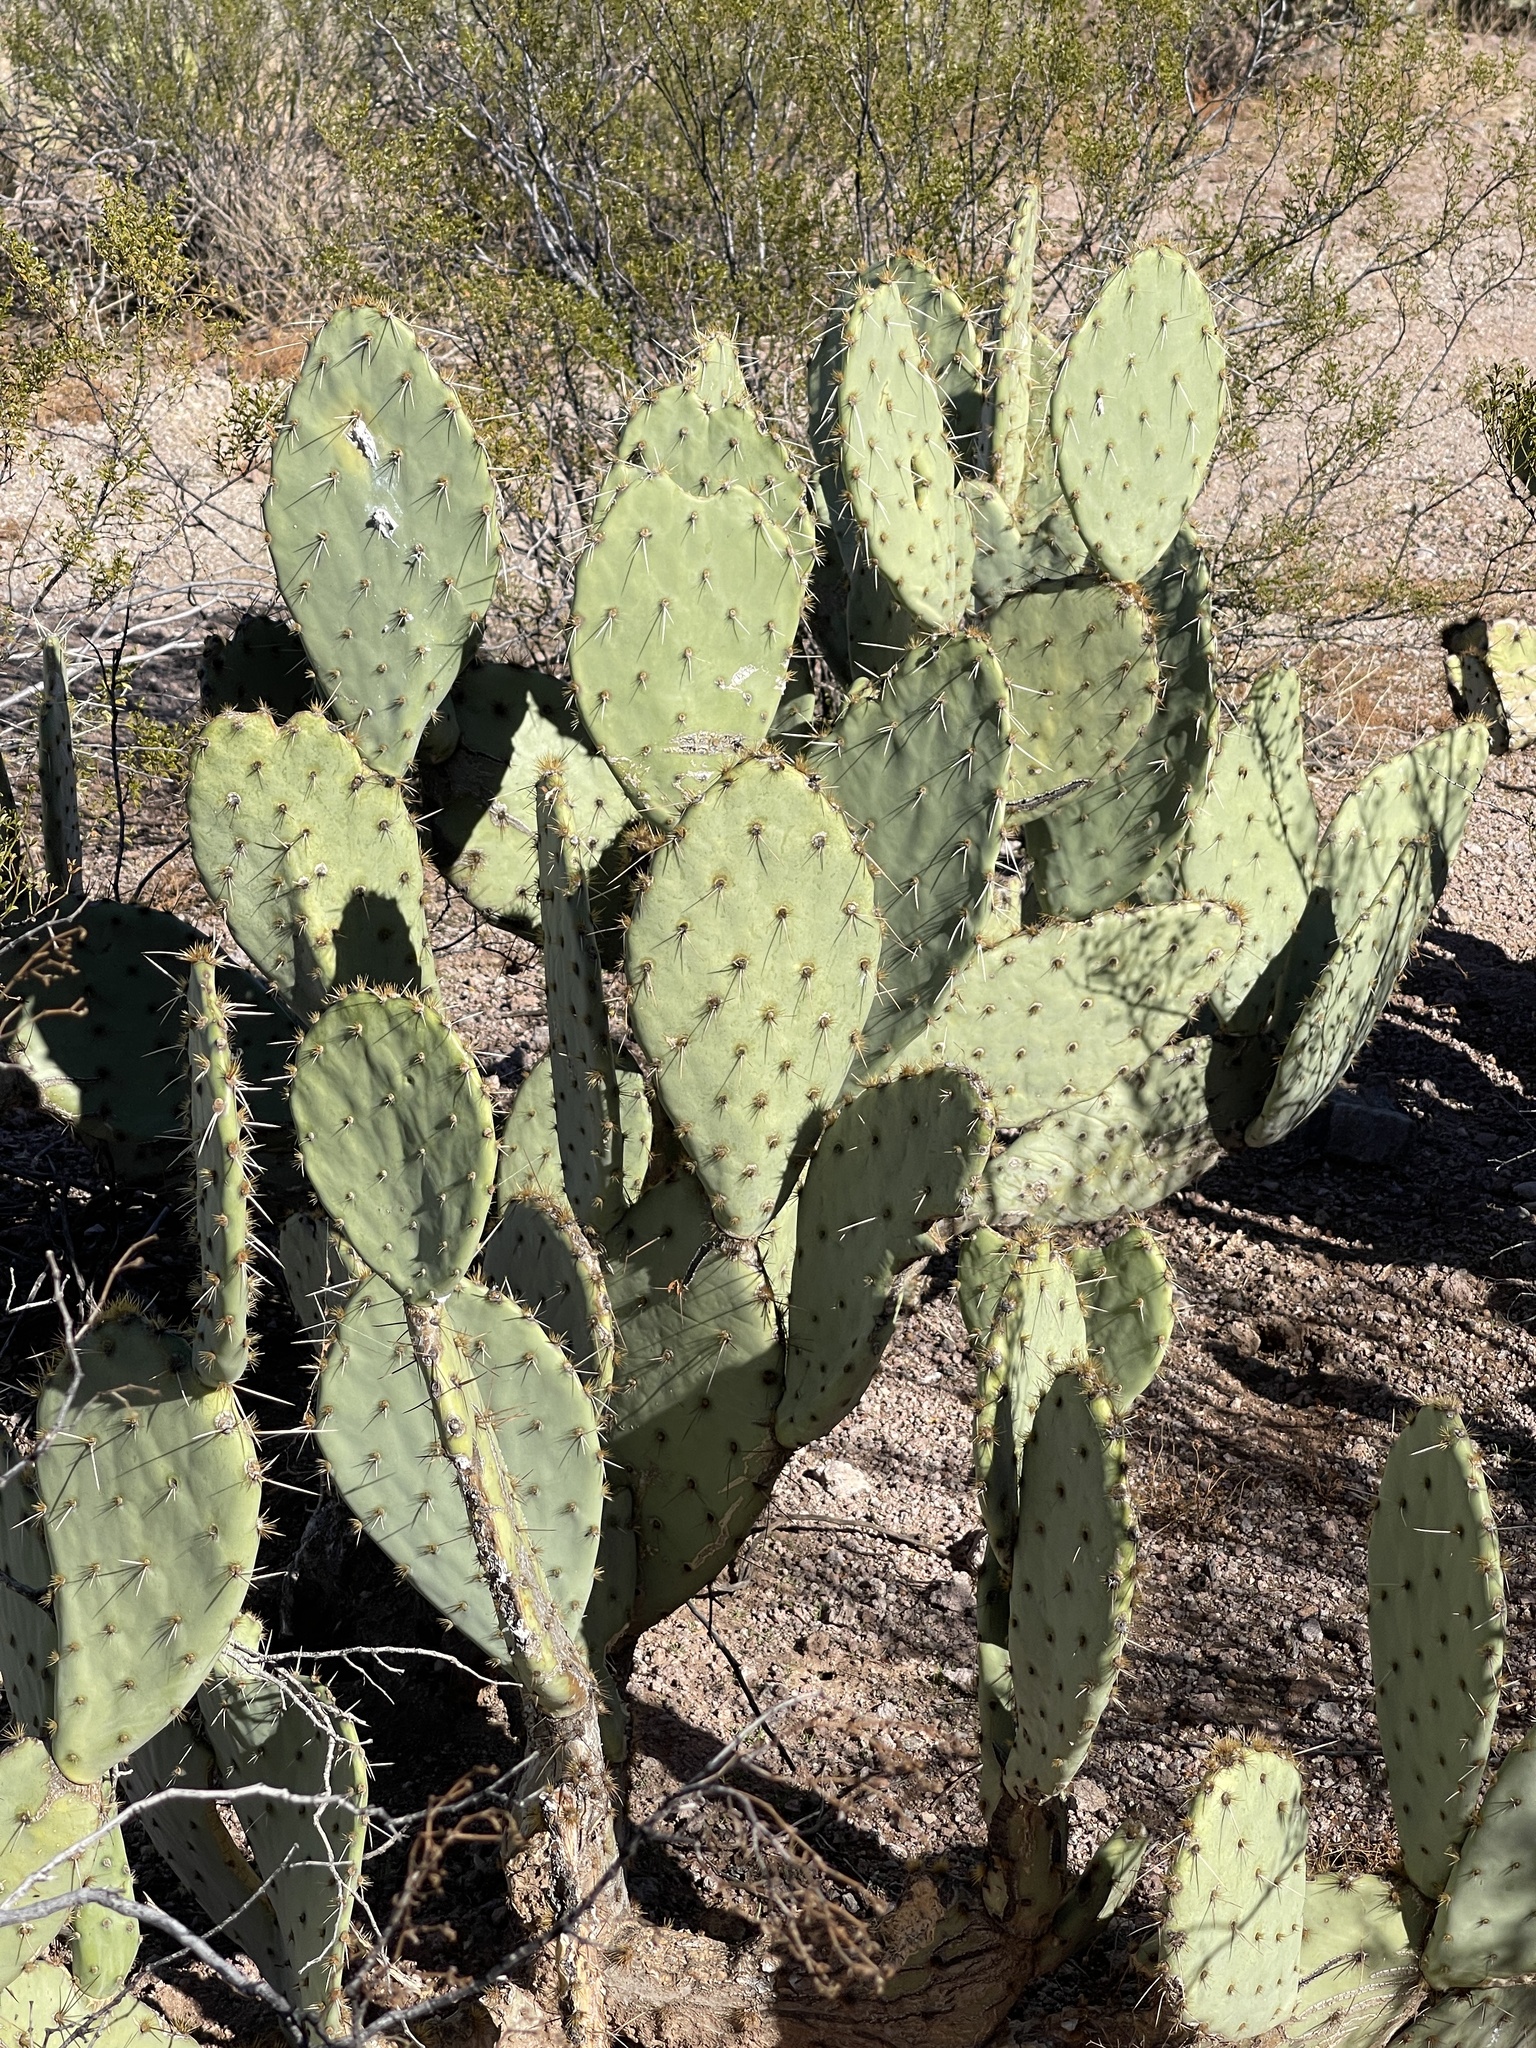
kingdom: Plantae
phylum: Tracheophyta
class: Magnoliopsida
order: Caryophyllales
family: Cactaceae
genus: Opuntia
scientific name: Opuntia engelmannii
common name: Cactus-apple
